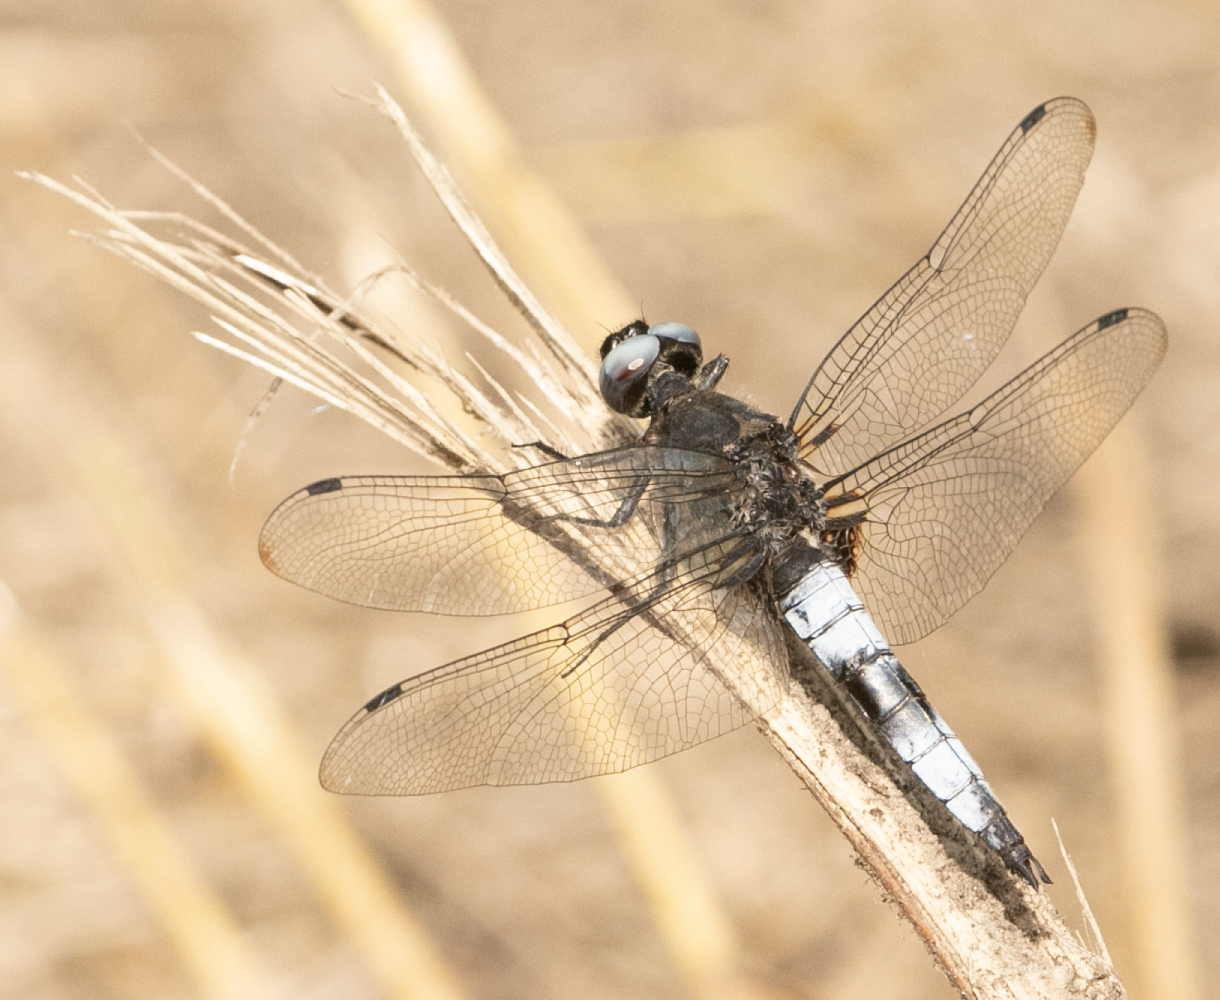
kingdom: Animalia
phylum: Arthropoda
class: Insecta
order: Odonata
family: Libellulidae
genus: Libellula
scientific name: Libellula fulva
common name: Blue chaser
